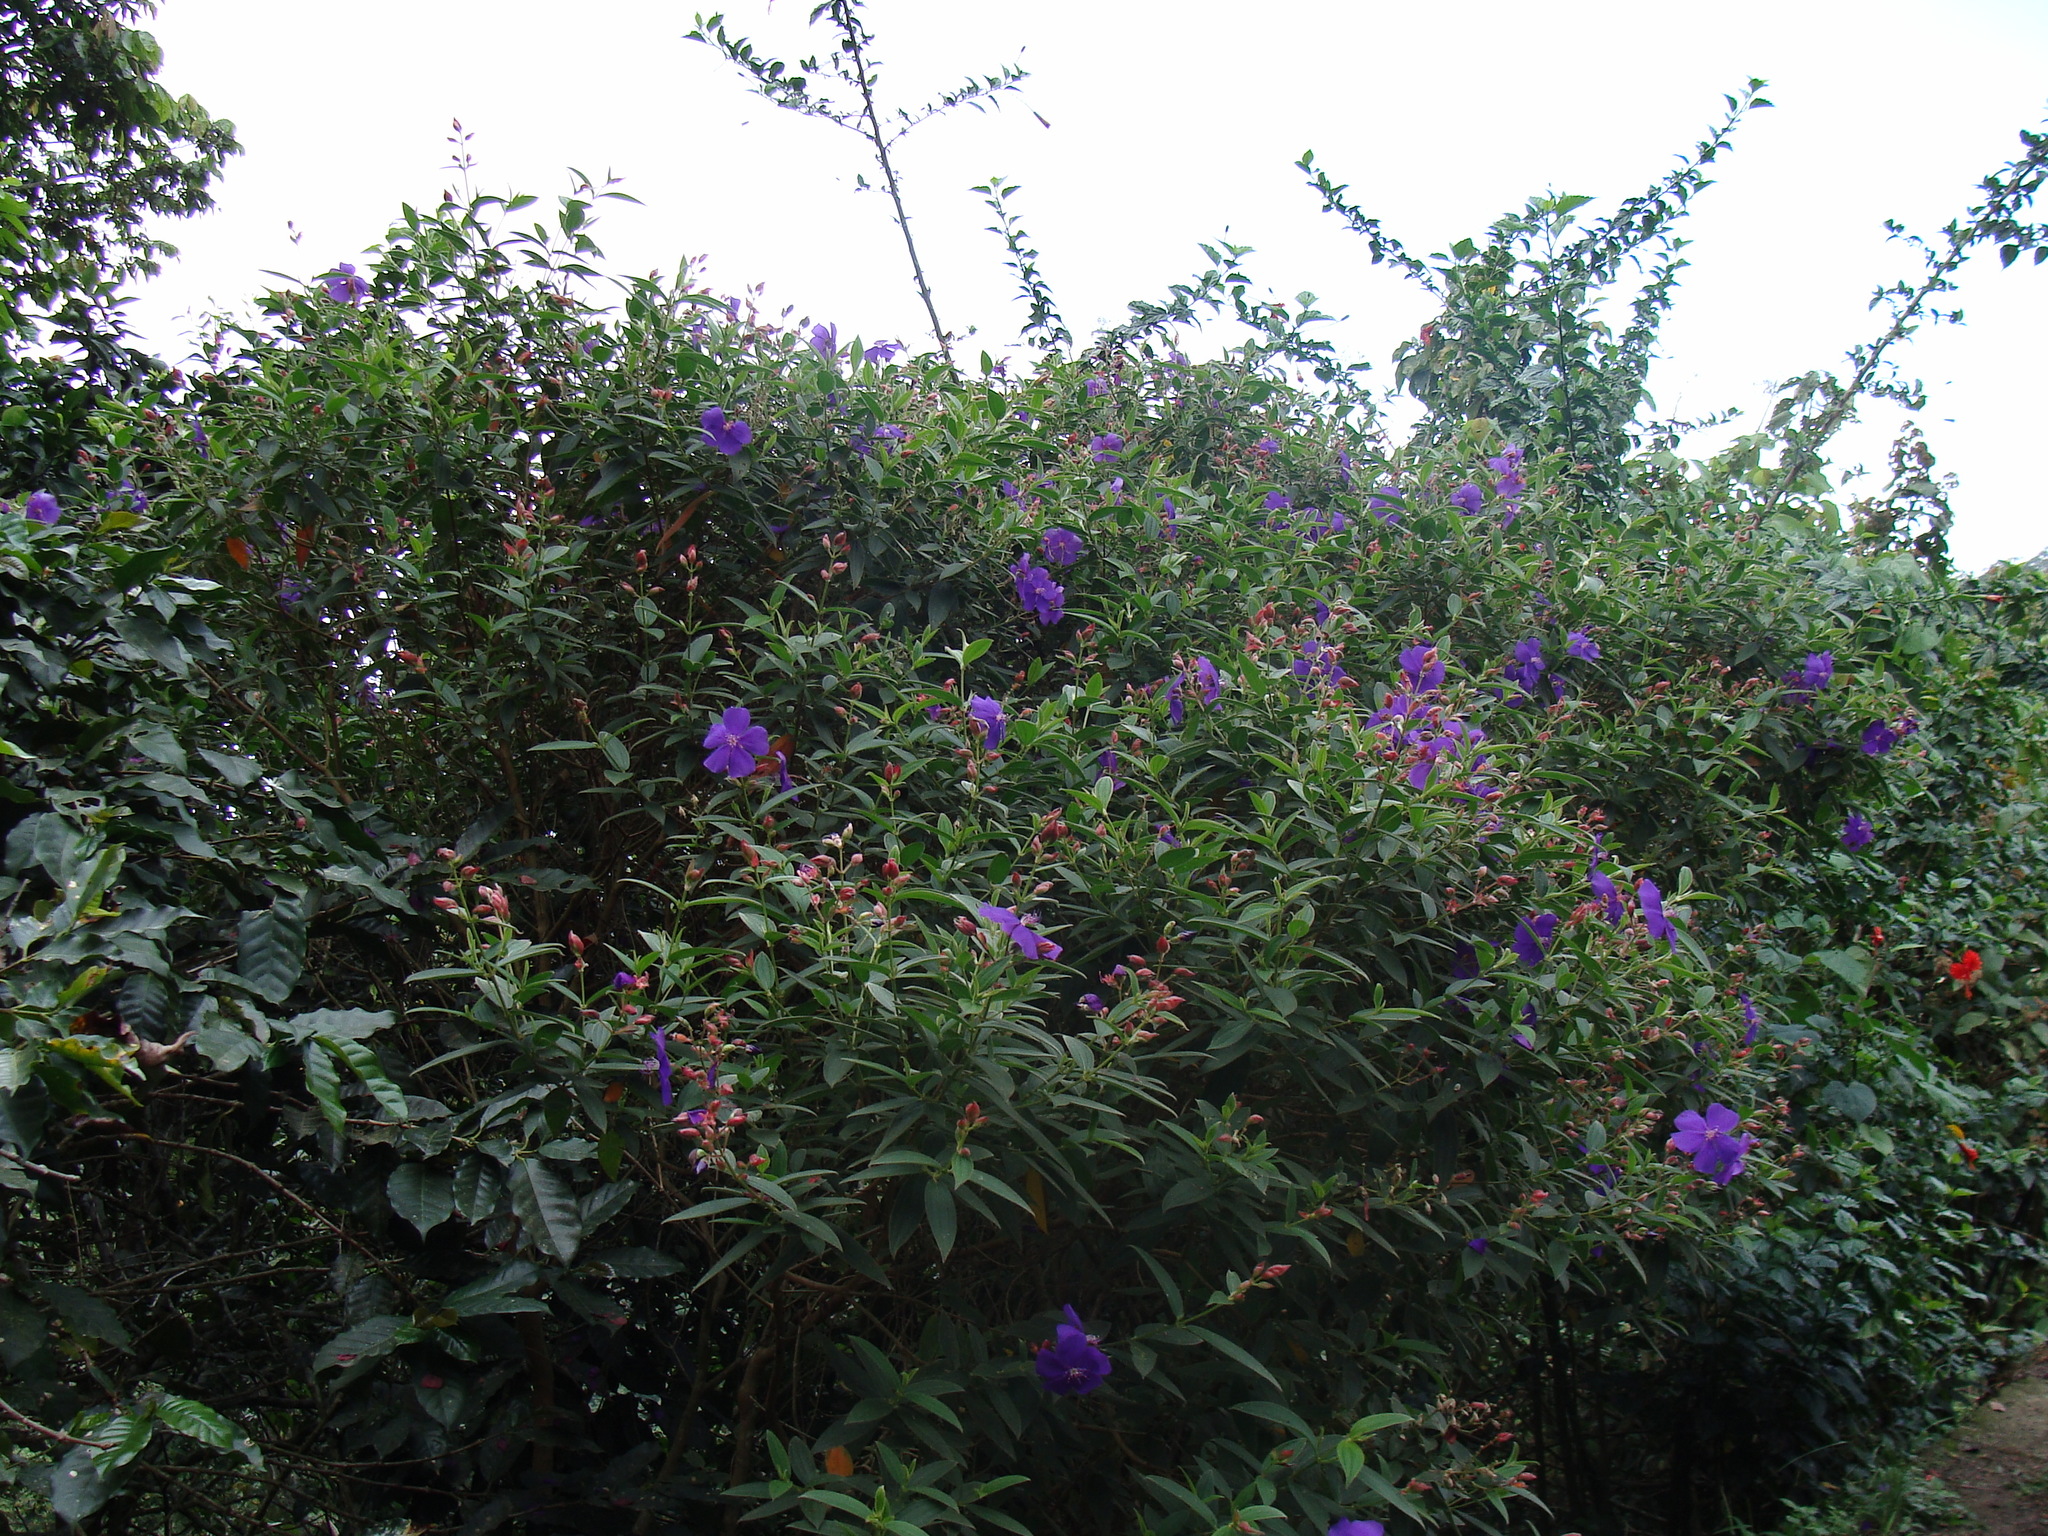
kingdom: Plantae
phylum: Tracheophyta
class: Magnoliopsida
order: Myrtales
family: Melastomataceae
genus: Pleroma
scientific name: Pleroma urvilleanum
